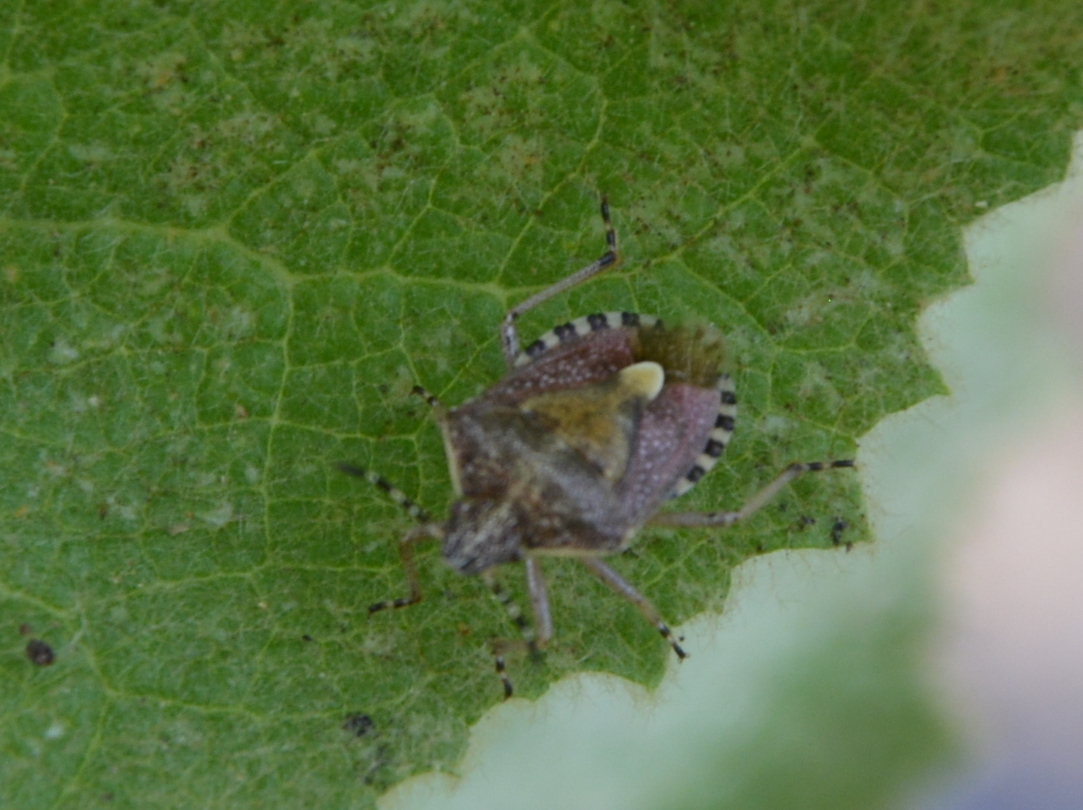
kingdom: Animalia
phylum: Arthropoda
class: Insecta
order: Hemiptera
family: Pentatomidae
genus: Dolycoris
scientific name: Dolycoris baccarum
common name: Sloe bug
